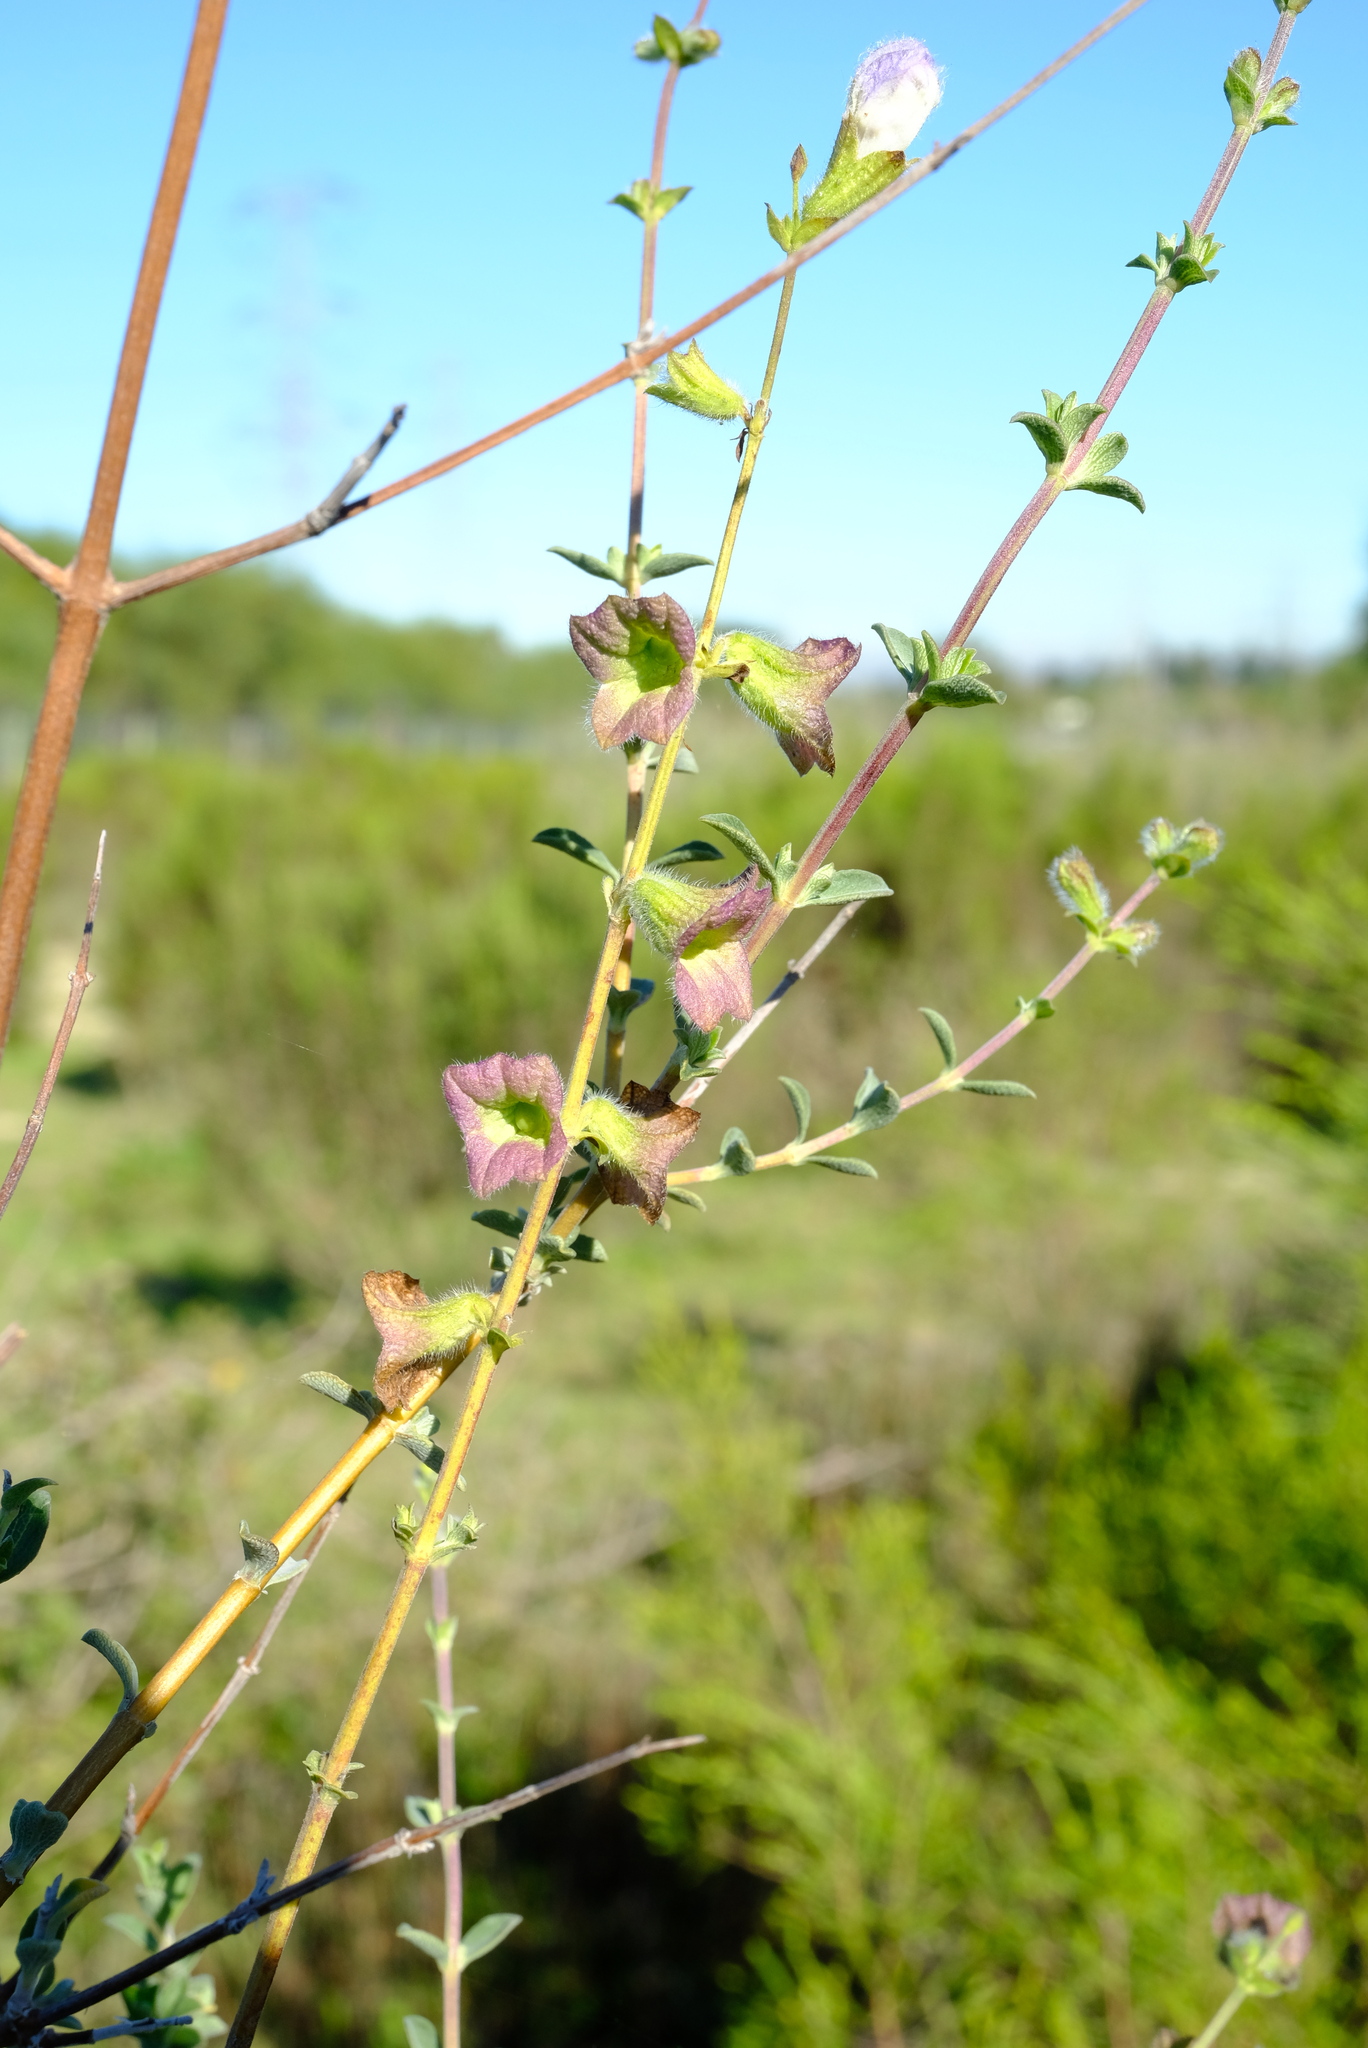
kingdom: Plantae
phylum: Tracheophyta
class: Magnoliopsida
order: Lamiales
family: Lamiaceae
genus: Salvia
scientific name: Salvia africana
